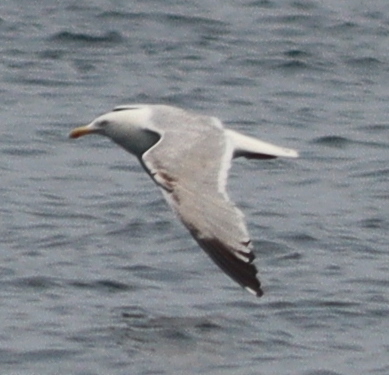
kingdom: Animalia
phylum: Chordata
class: Aves
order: Charadriiformes
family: Laridae
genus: Larus
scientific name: Larus argentatus
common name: Herring gull
